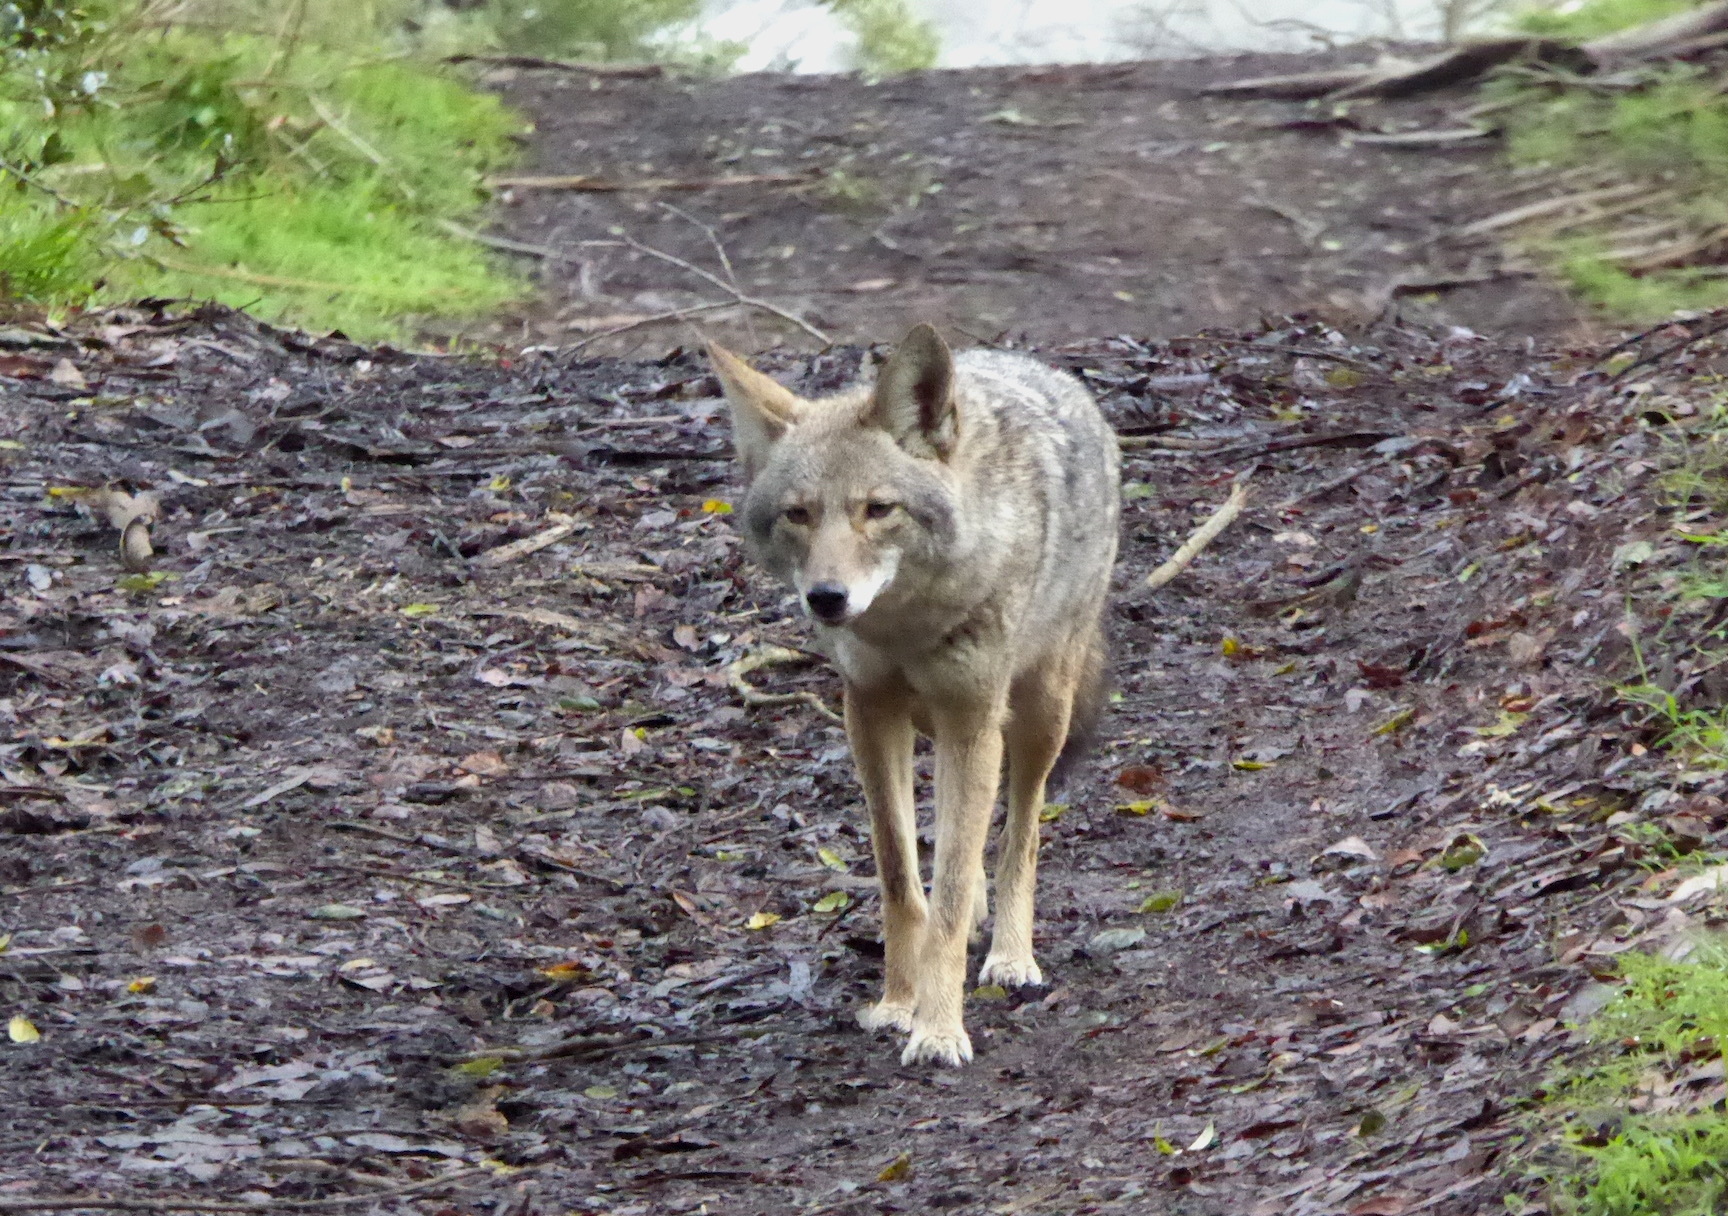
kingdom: Animalia
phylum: Chordata
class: Mammalia
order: Carnivora
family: Canidae
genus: Canis
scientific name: Canis latrans
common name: Coyote
